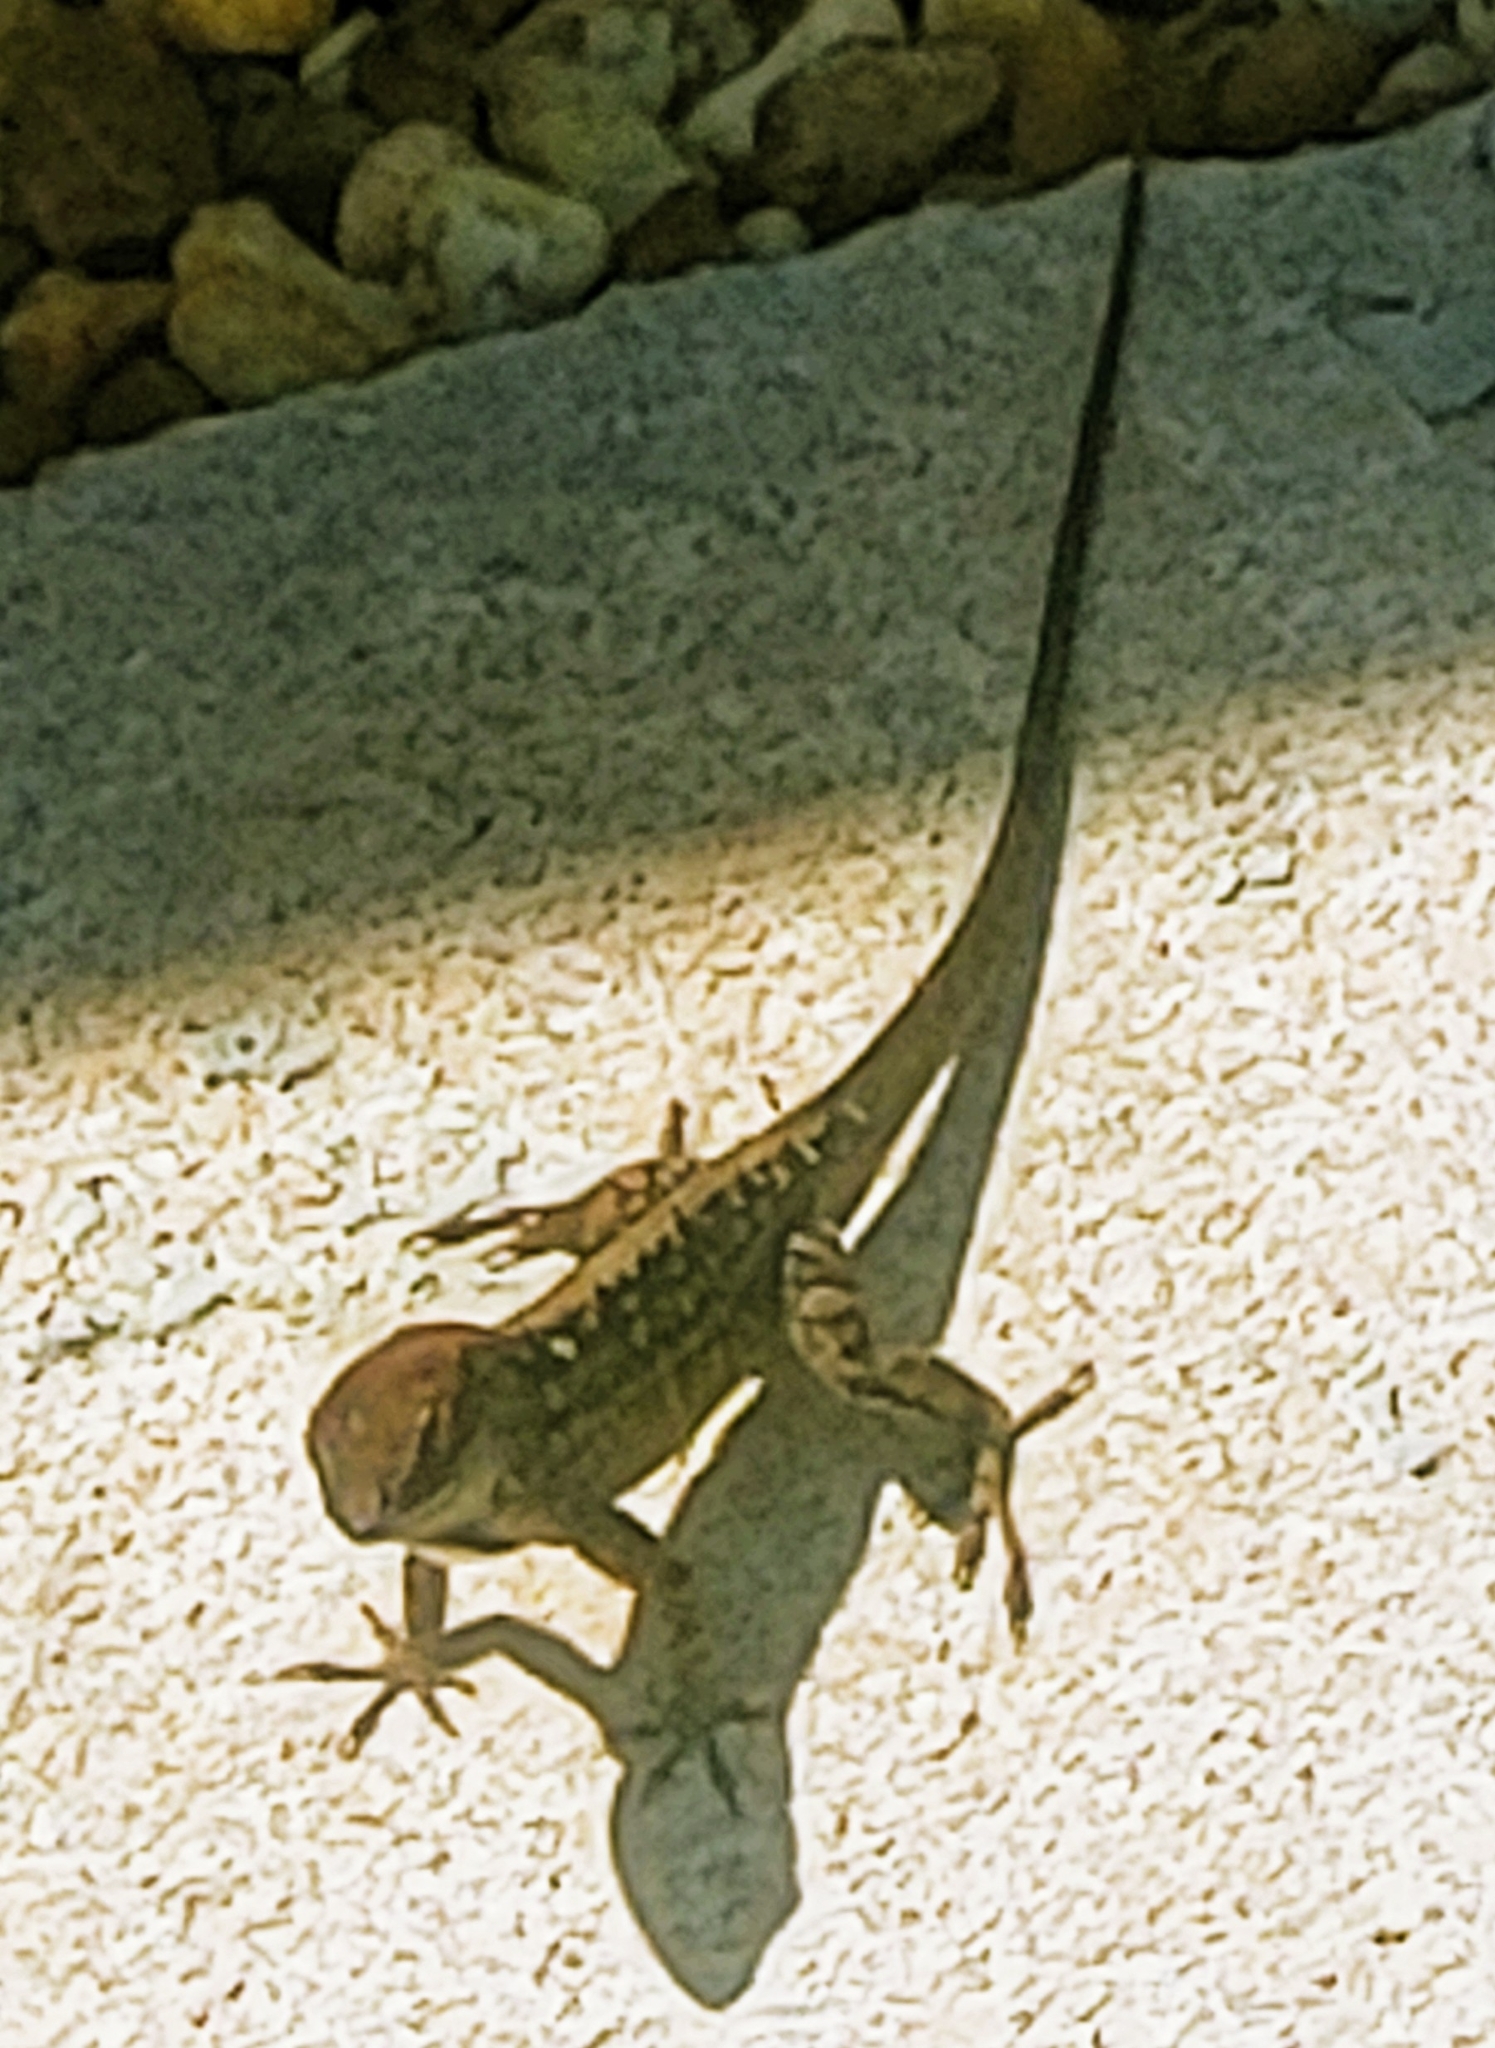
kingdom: Animalia
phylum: Chordata
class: Squamata
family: Dactyloidae
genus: Anolis
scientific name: Anolis sagrei
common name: Brown anole
